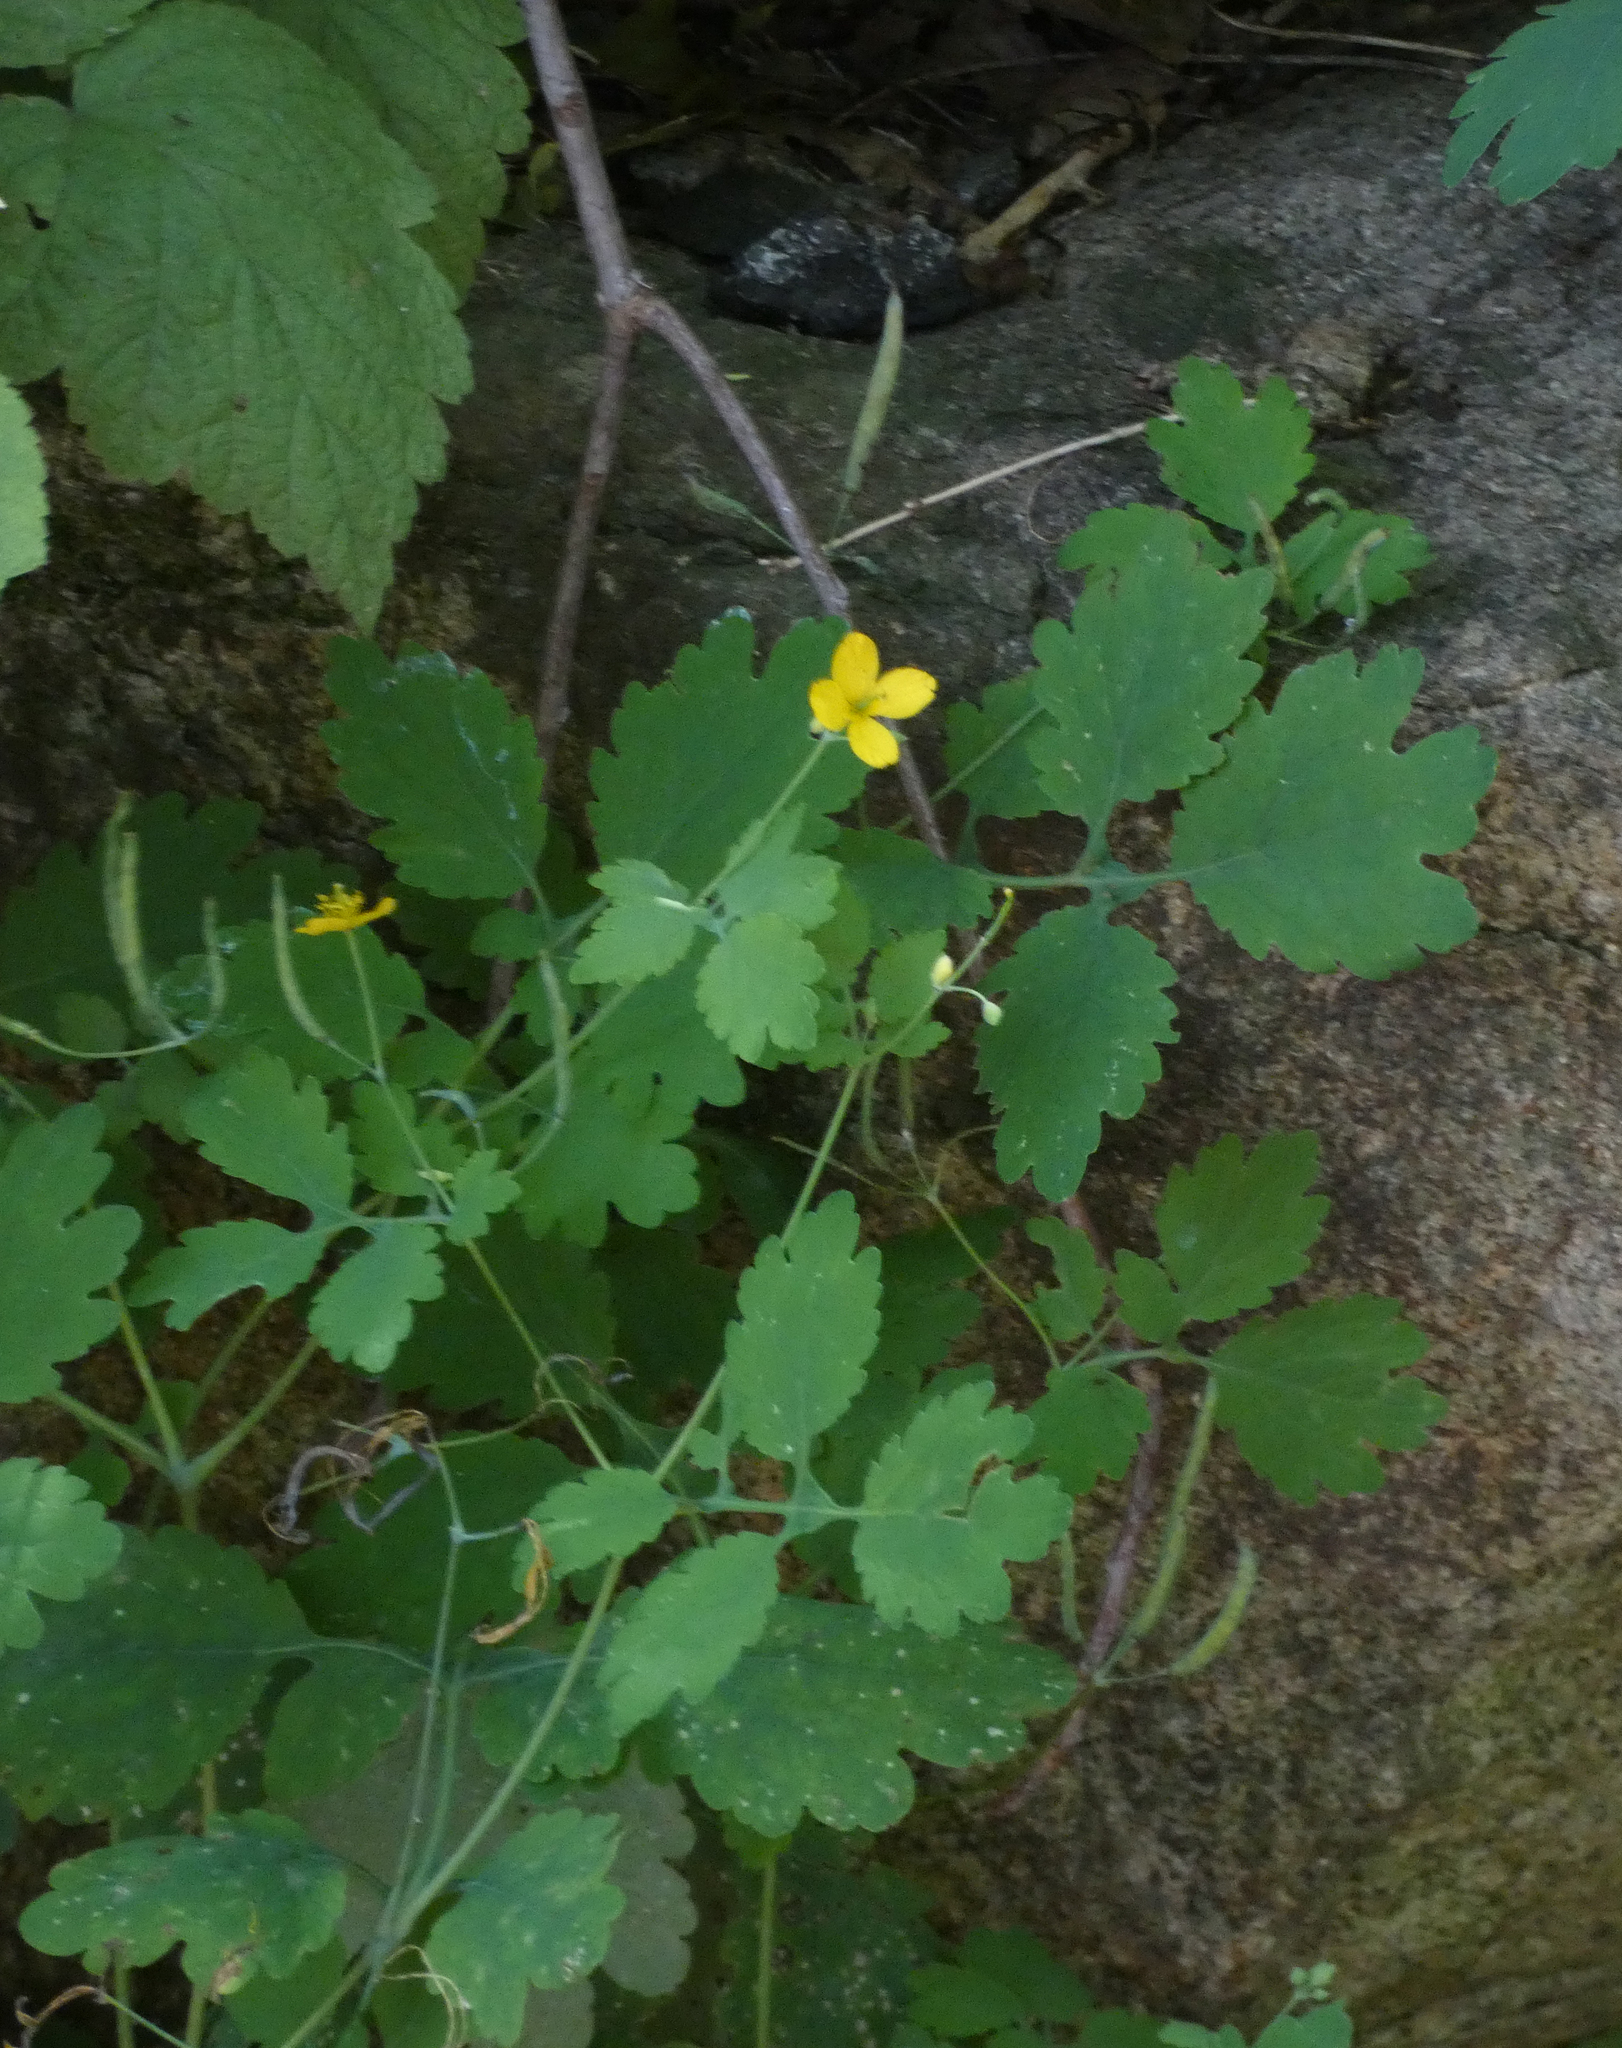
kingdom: Plantae
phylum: Tracheophyta
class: Magnoliopsida
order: Ranunculales
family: Papaveraceae
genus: Chelidonium
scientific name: Chelidonium majus
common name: Greater celandine
